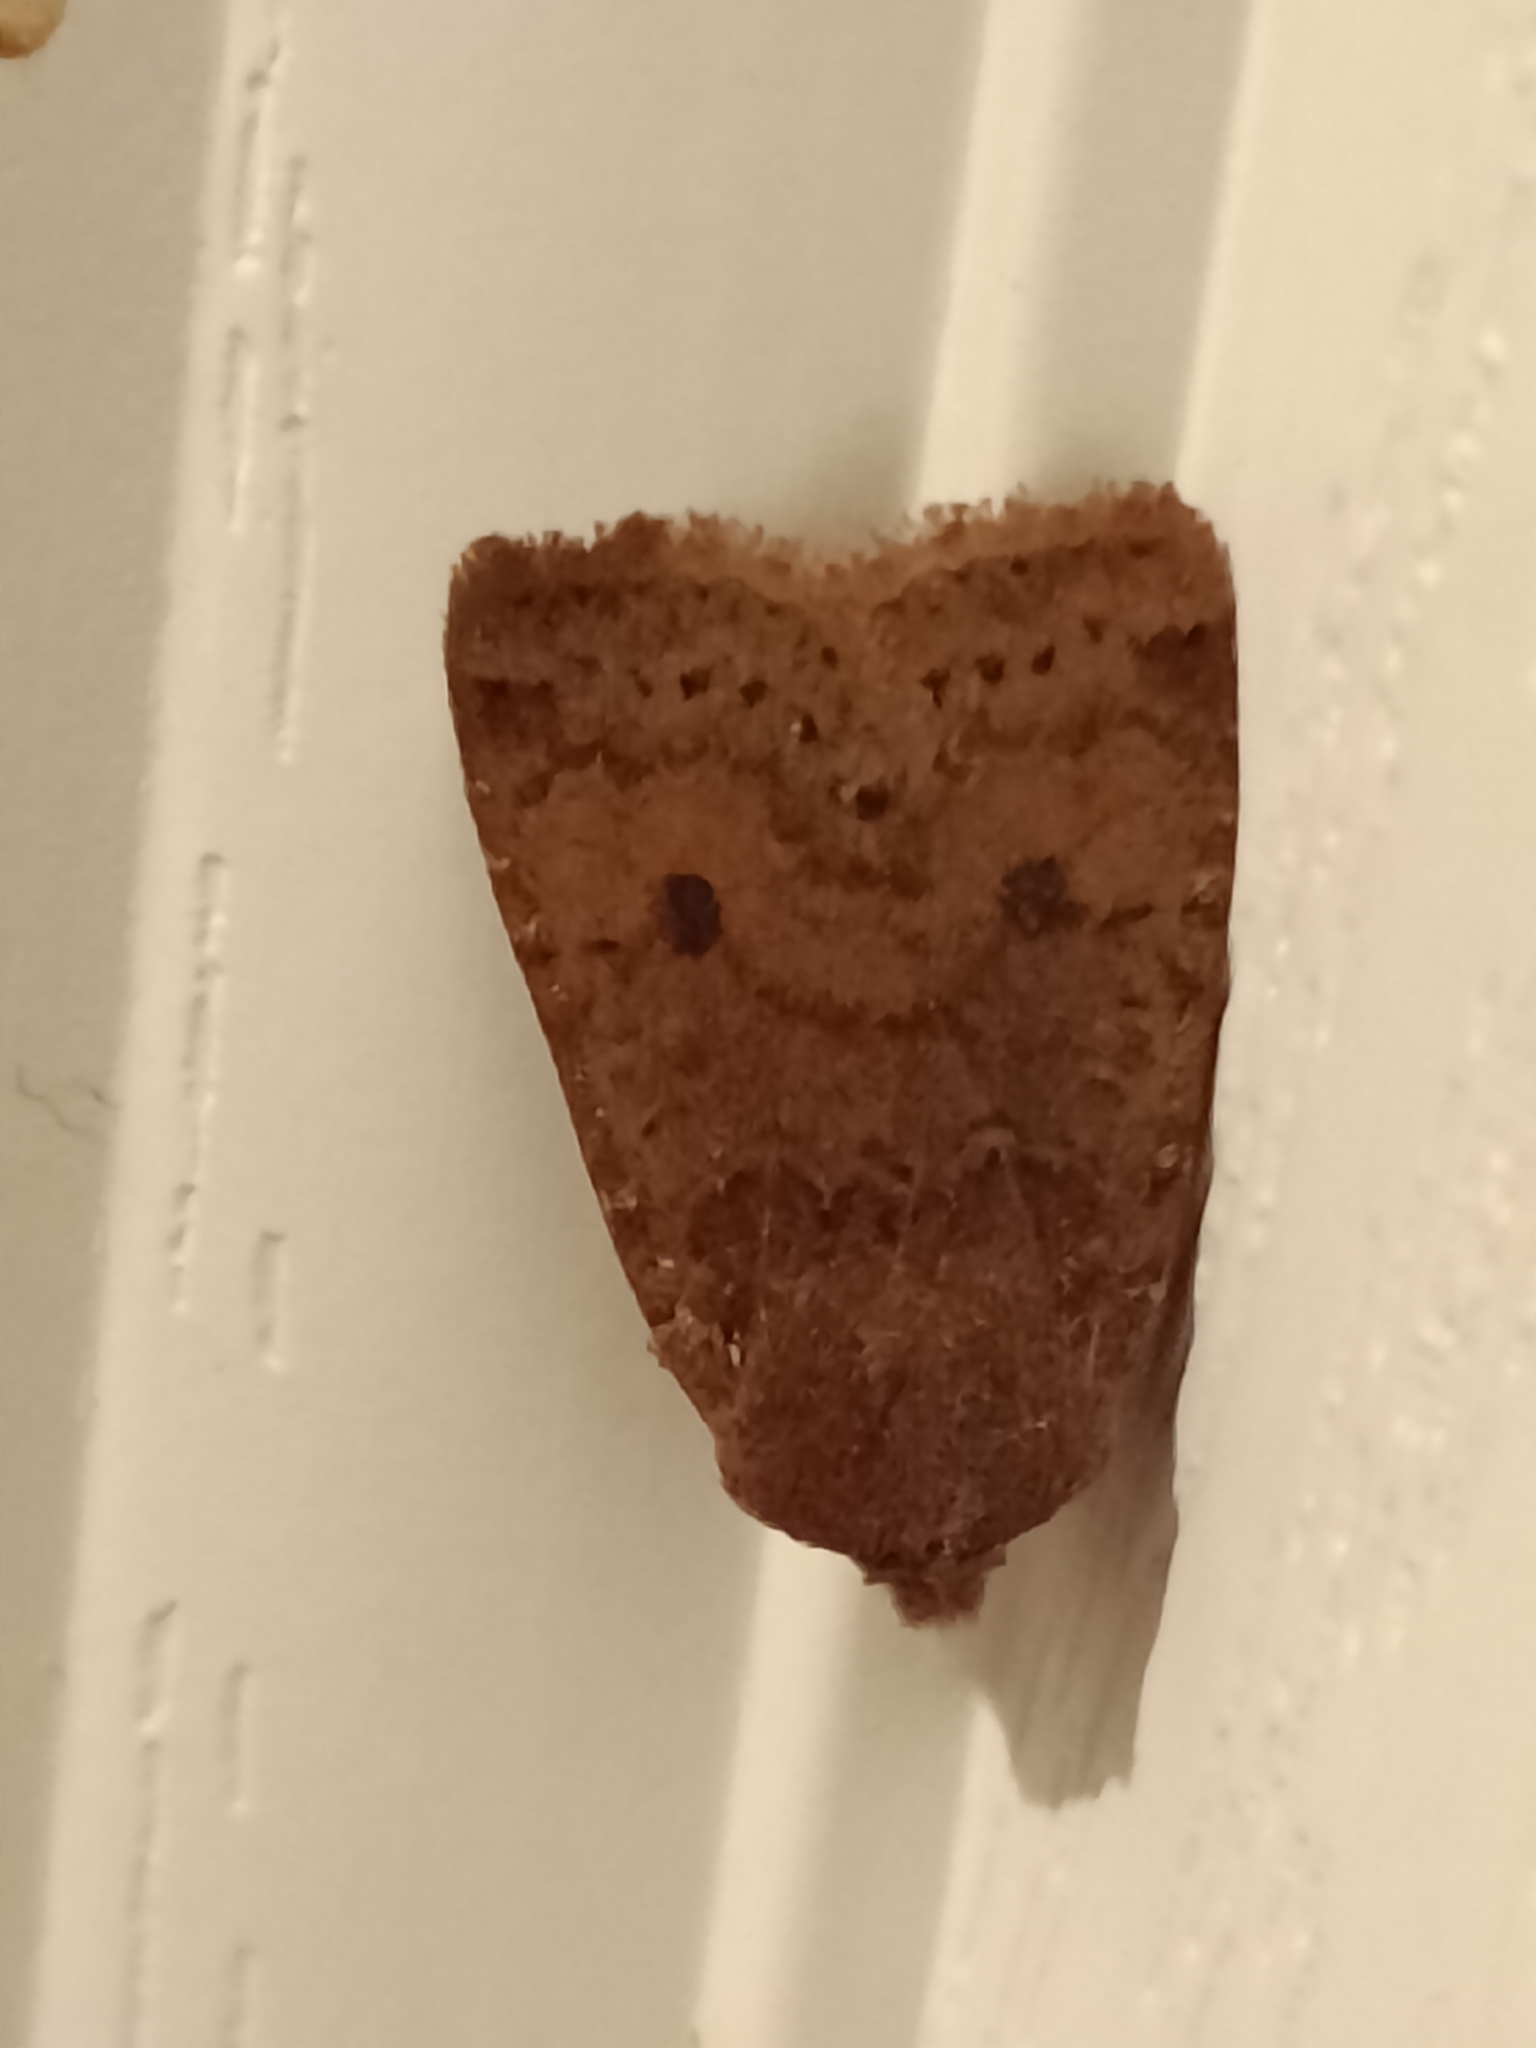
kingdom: Animalia
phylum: Arthropoda
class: Insecta
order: Lepidoptera
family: Noctuidae
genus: Conistra
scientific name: Conistra vaccinii
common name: Chestnut
